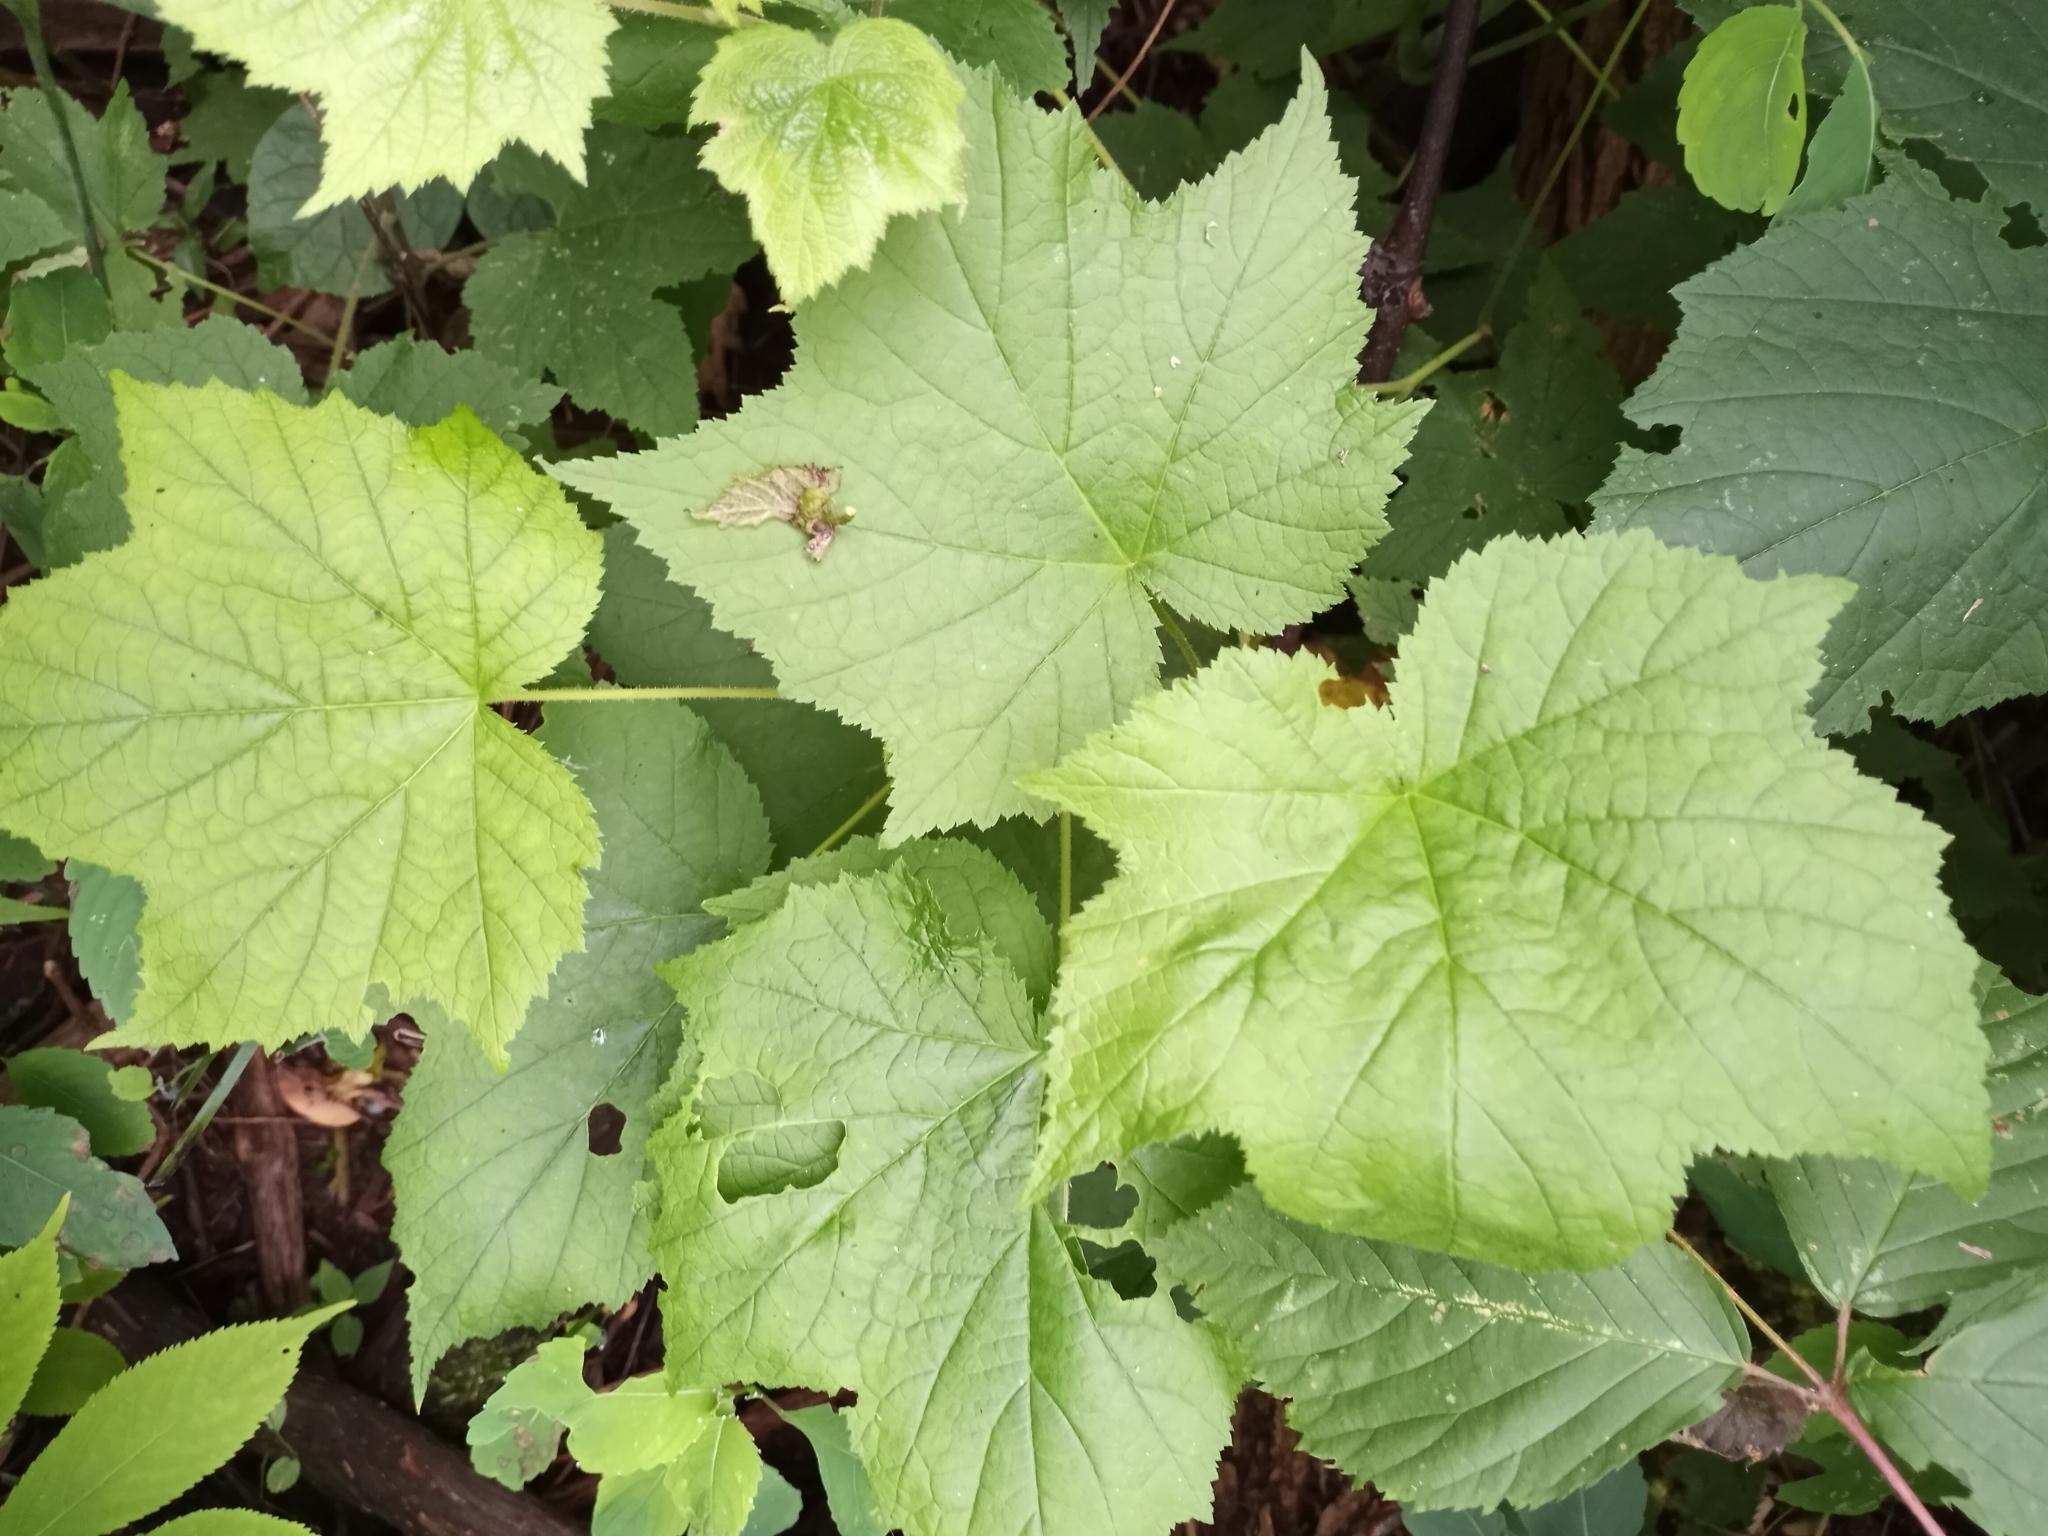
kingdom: Plantae
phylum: Tracheophyta
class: Magnoliopsida
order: Rosales
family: Rosaceae
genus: Rubus
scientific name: Rubus odoratus
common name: Purple-flowered raspberry
